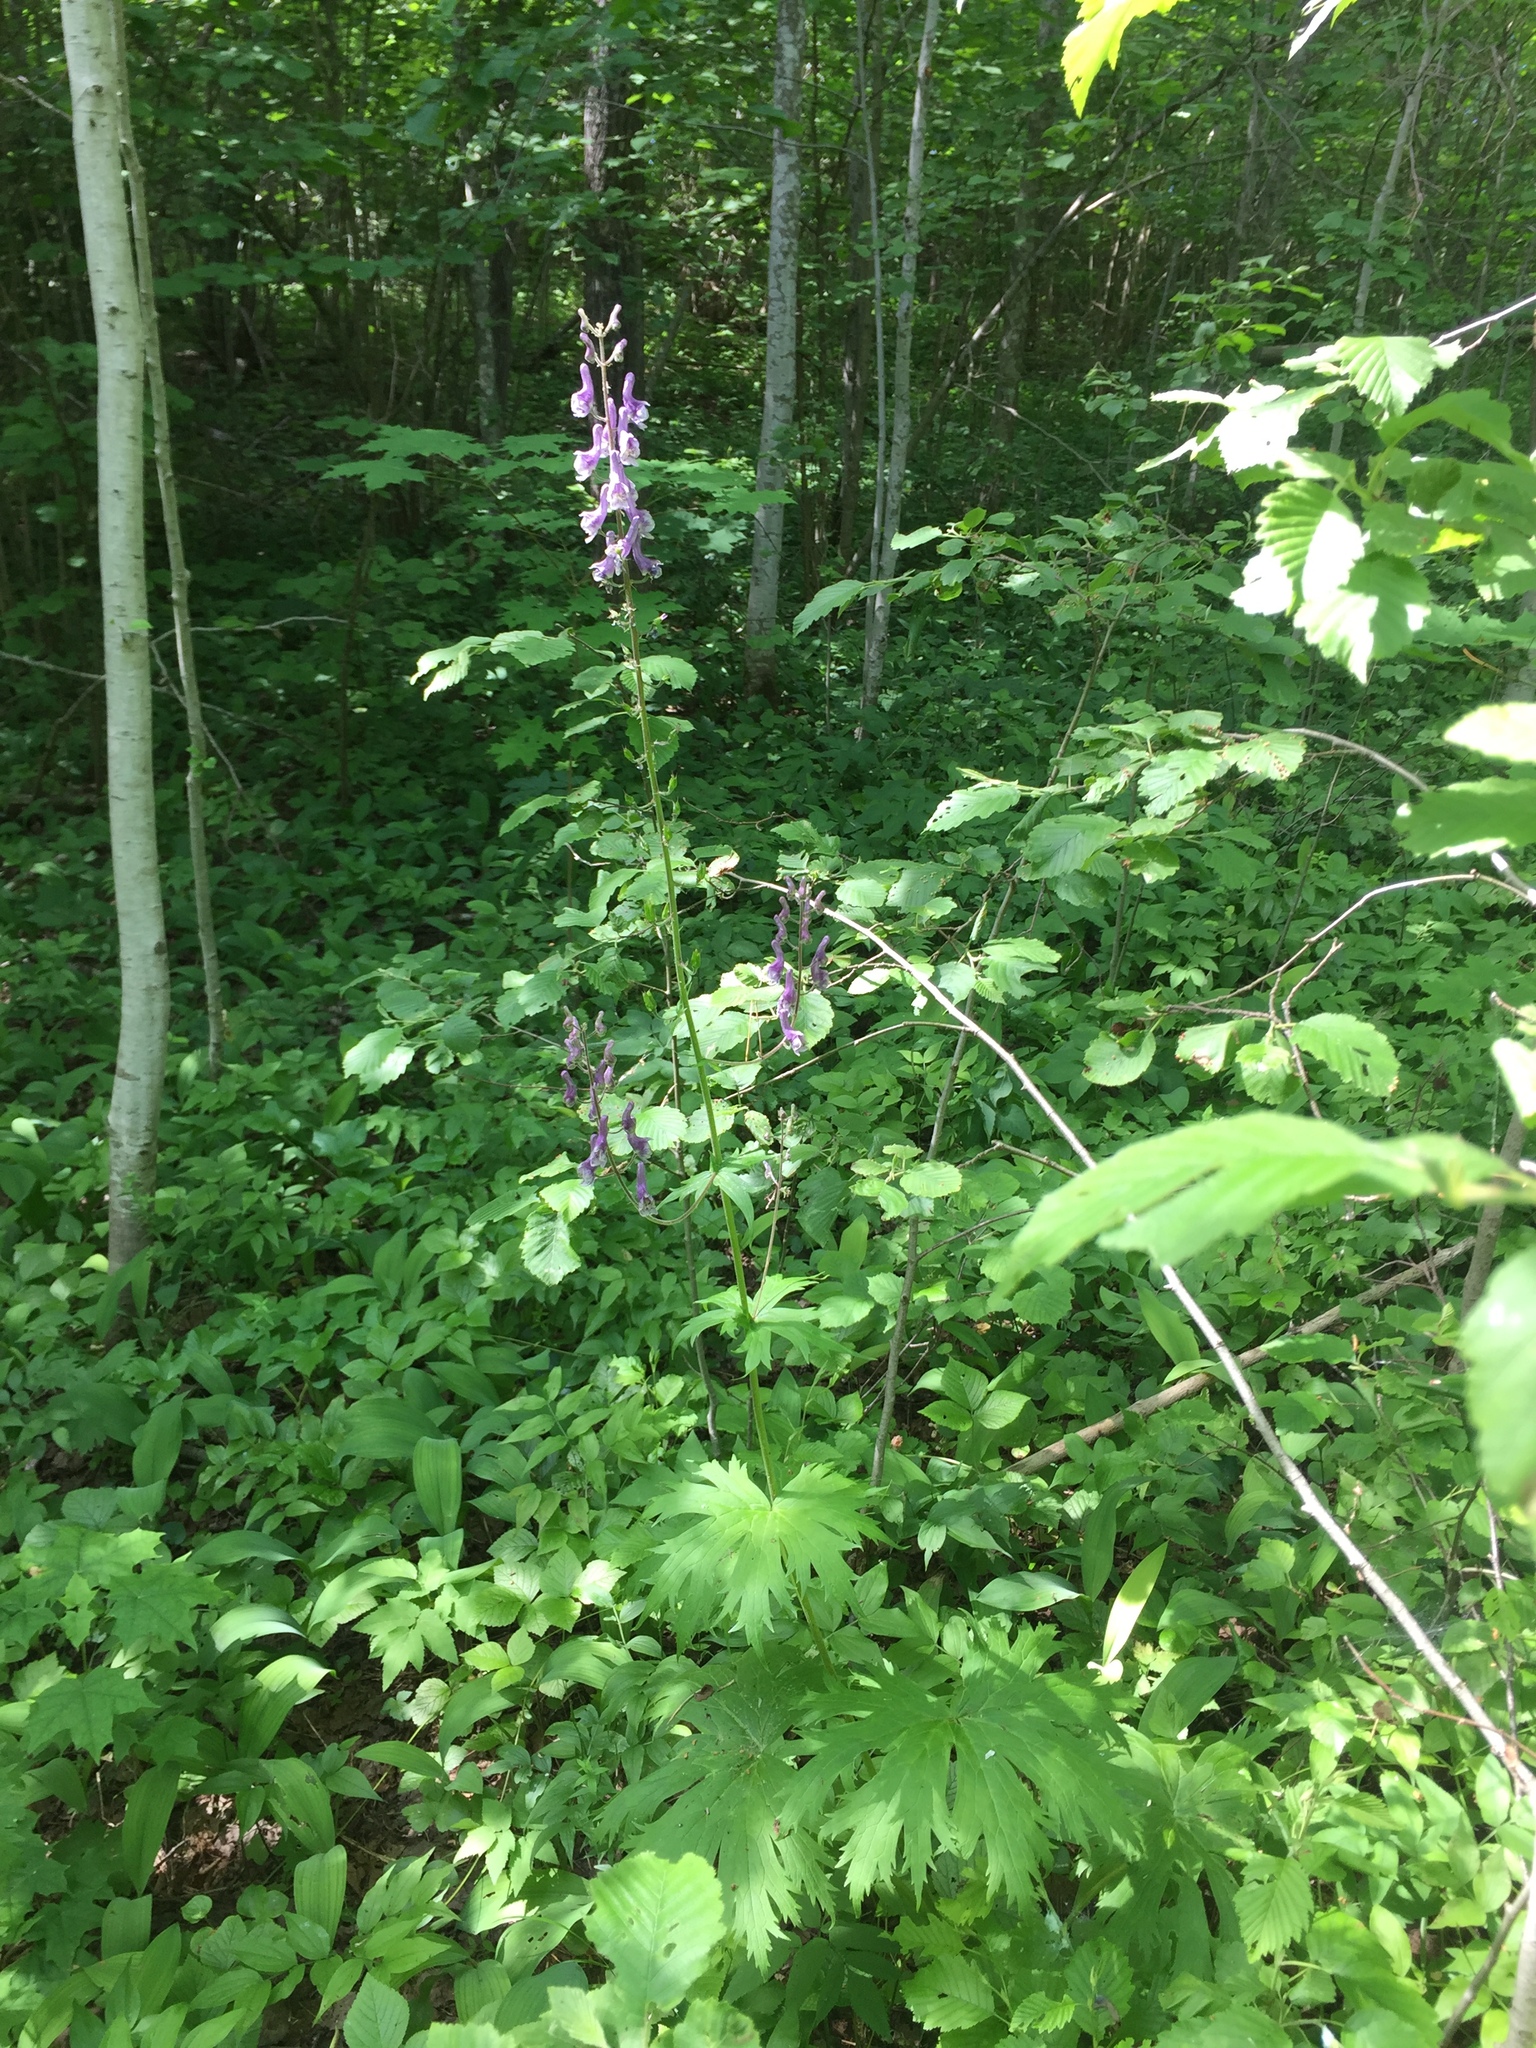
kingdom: Plantae
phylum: Tracheophyta
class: Magnoliopsida
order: Ranunculales
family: Ranunculaceae
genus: Aconitum
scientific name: Aconitum septentrionale
